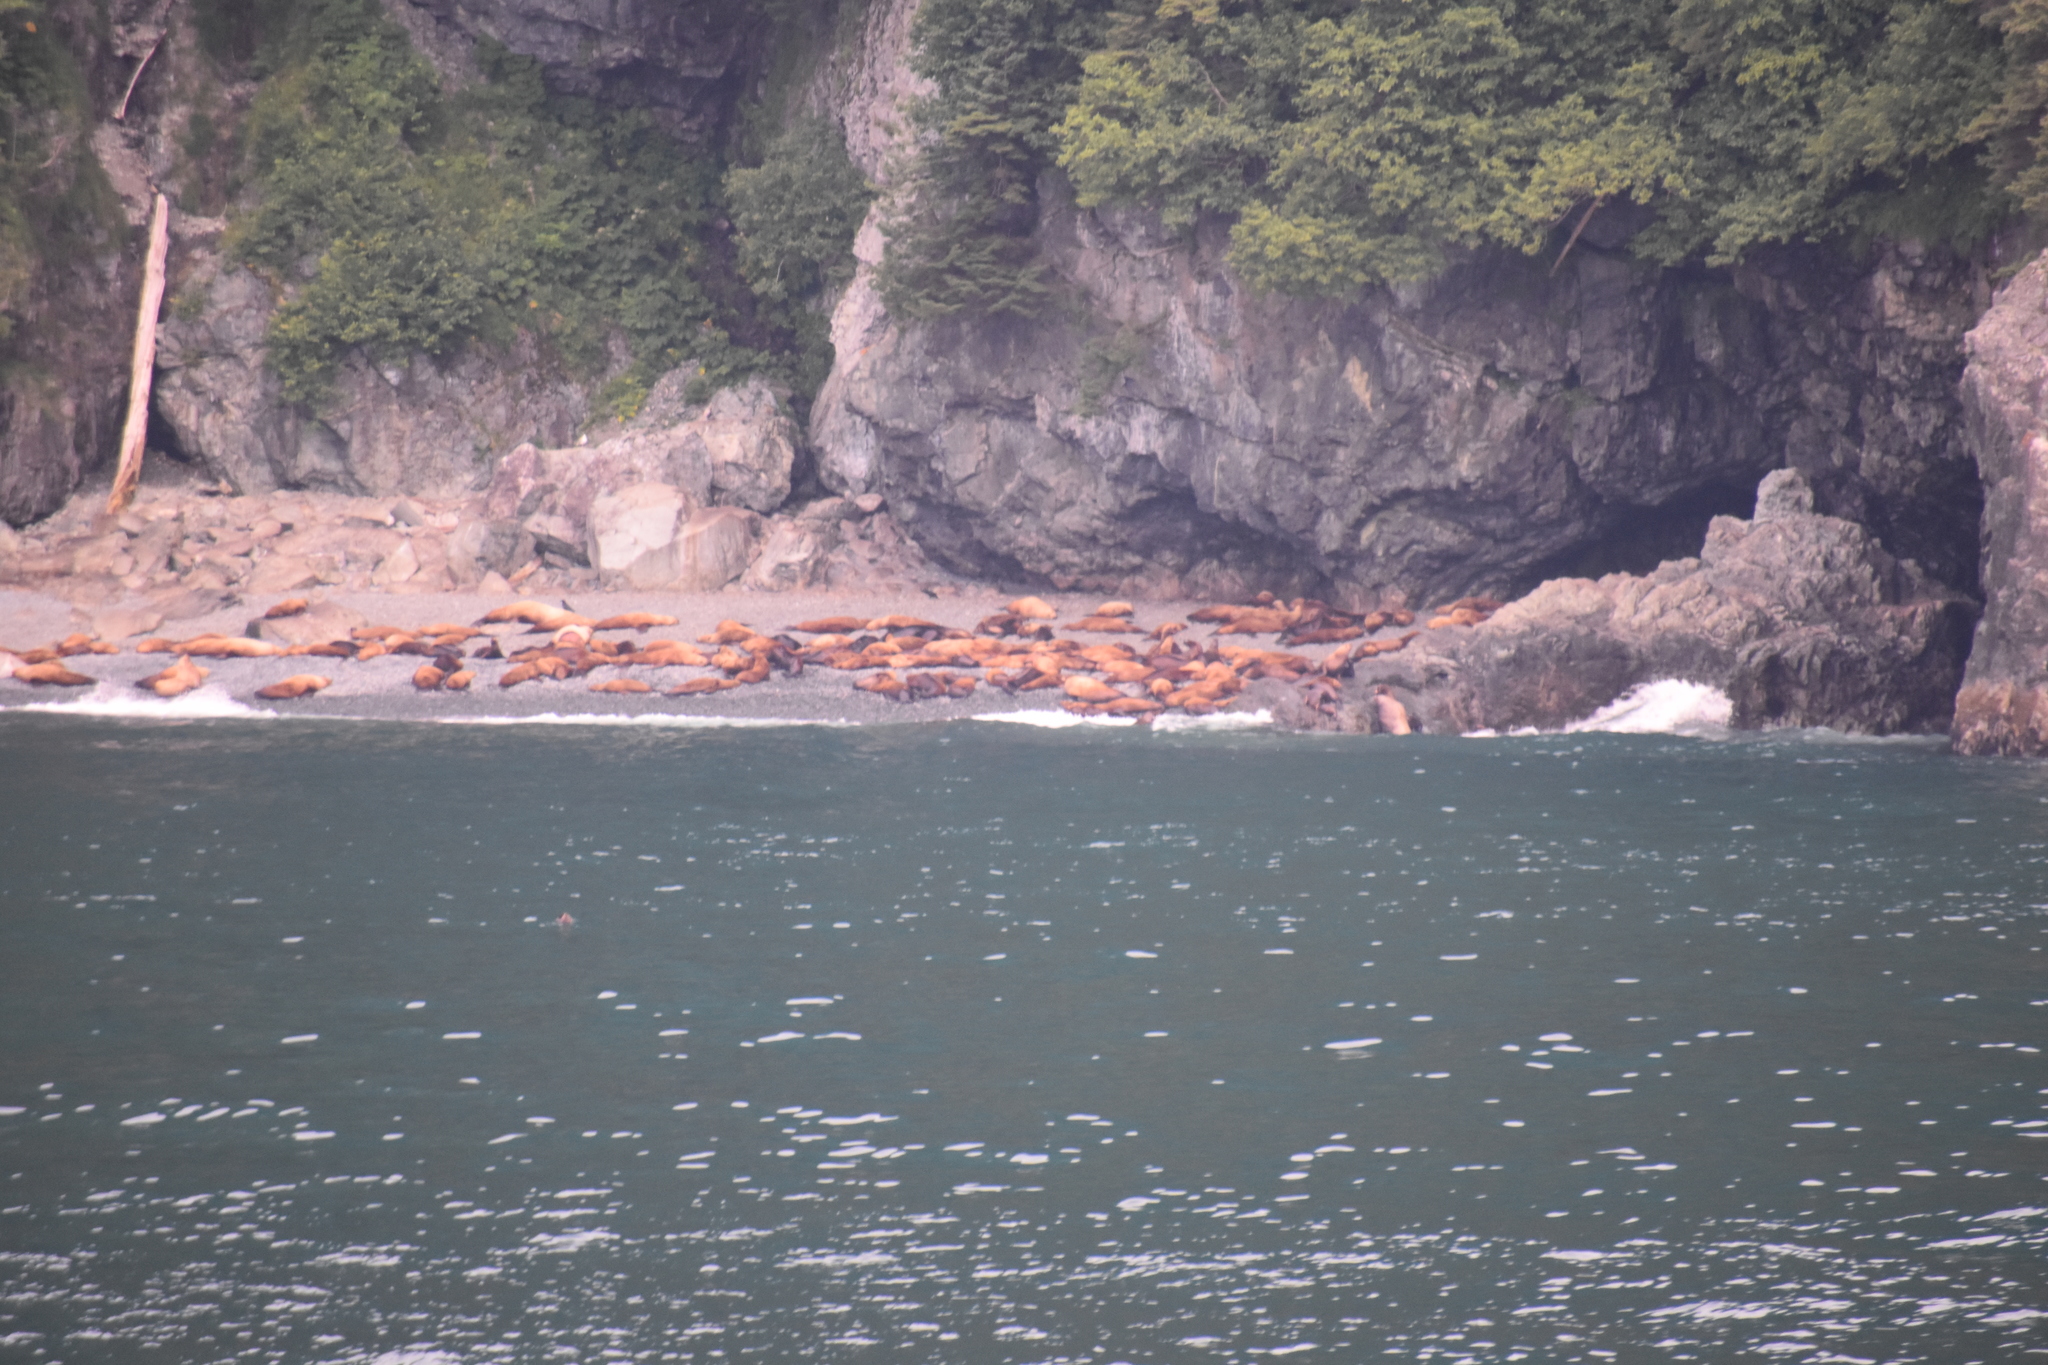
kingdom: Animalia
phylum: Chordata
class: Mammalia
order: Carnivora
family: Otariidae
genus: Eumetopias
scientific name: Eumetopias jubatus
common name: Steller sea lion
